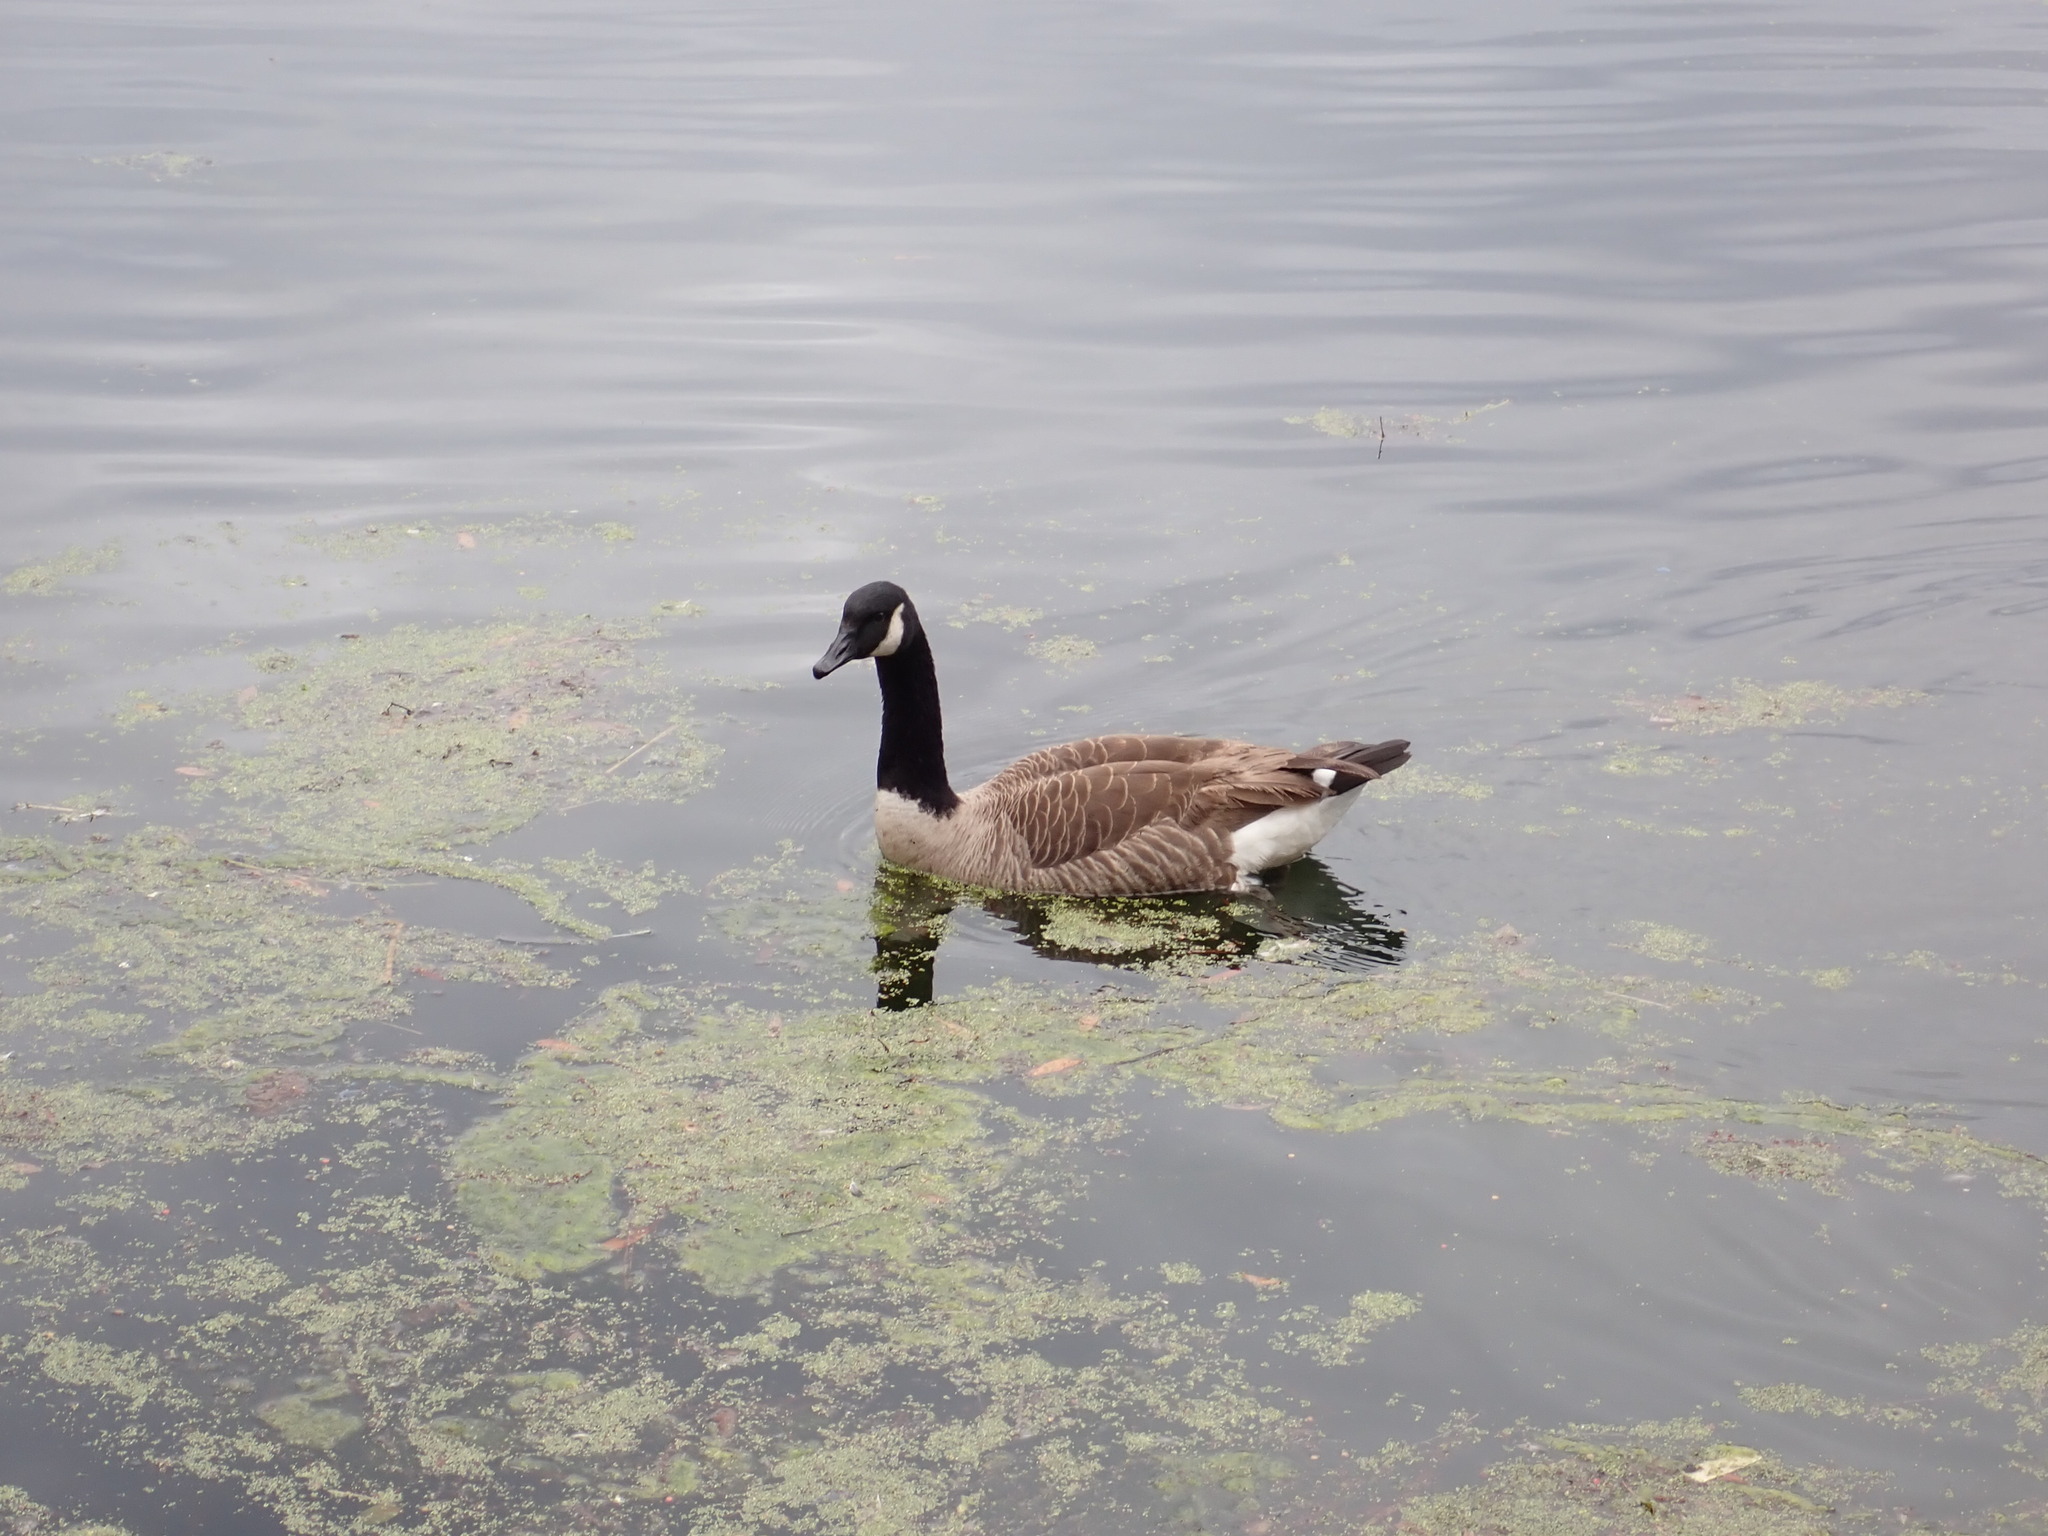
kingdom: Animalia
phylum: Chordata
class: Aves
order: Anseriformes
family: Anatidae
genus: Branta
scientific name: Branta canadensis
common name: Canada goose
